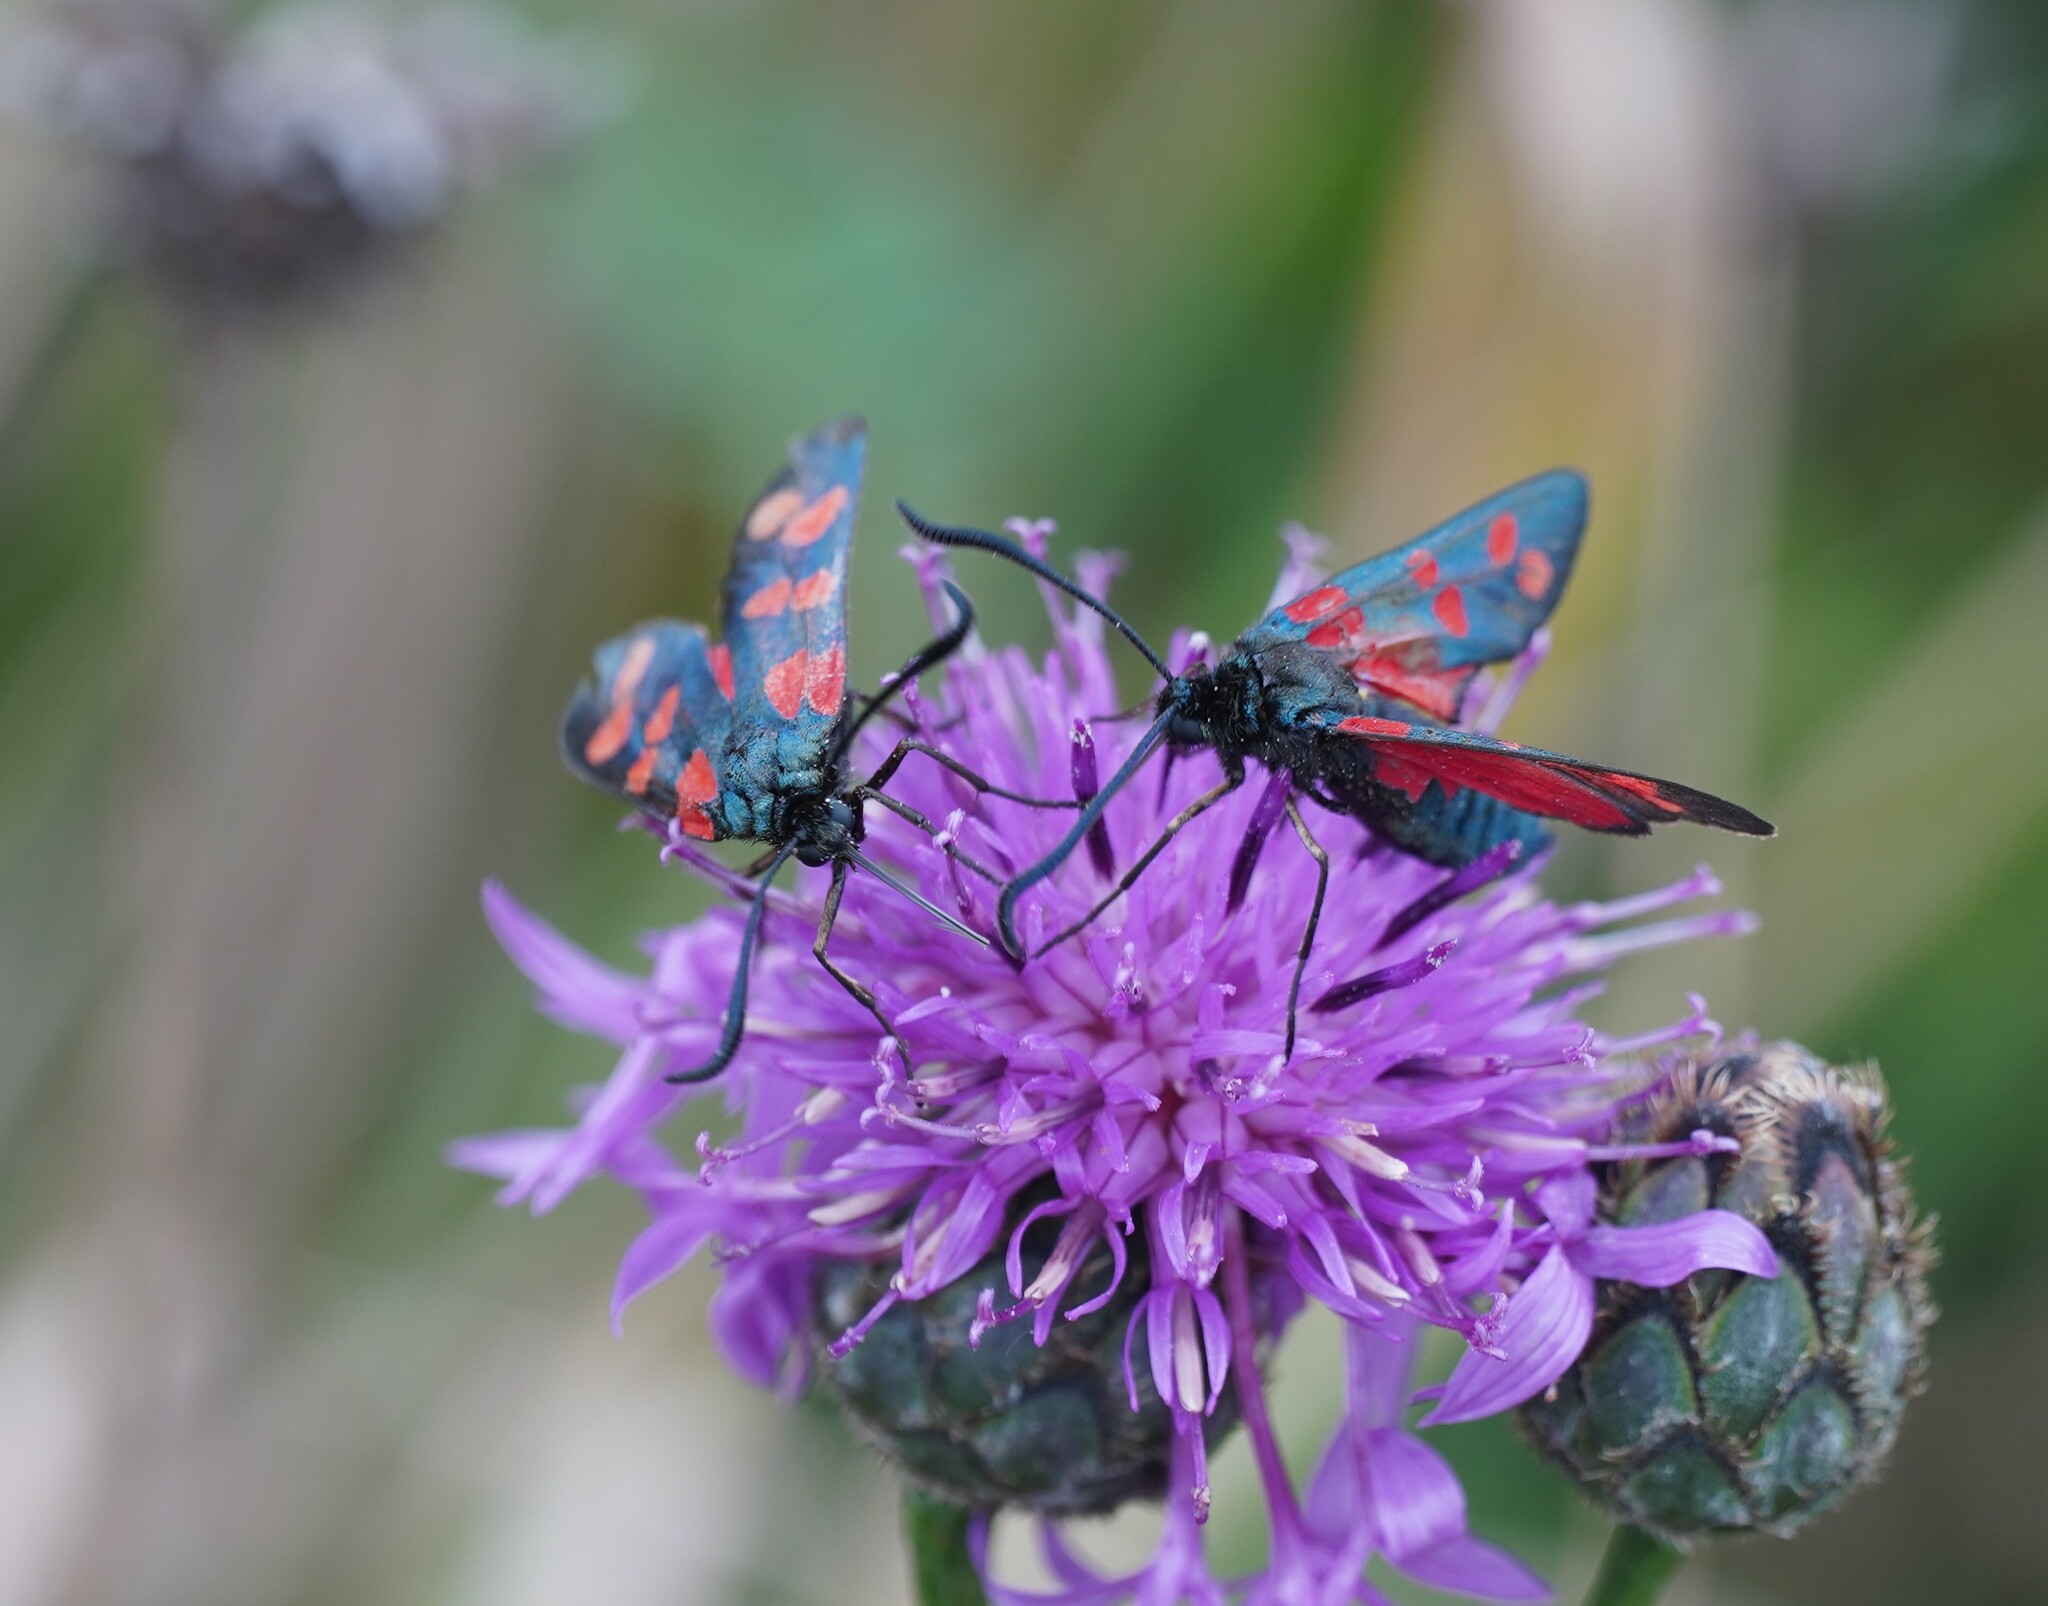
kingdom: Animalia
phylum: Arthropoda
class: Insecta
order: Lepidoptera
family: Zygaenidae
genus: Zygaena
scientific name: Zygaena transalpina
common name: Southern six spot burnet
